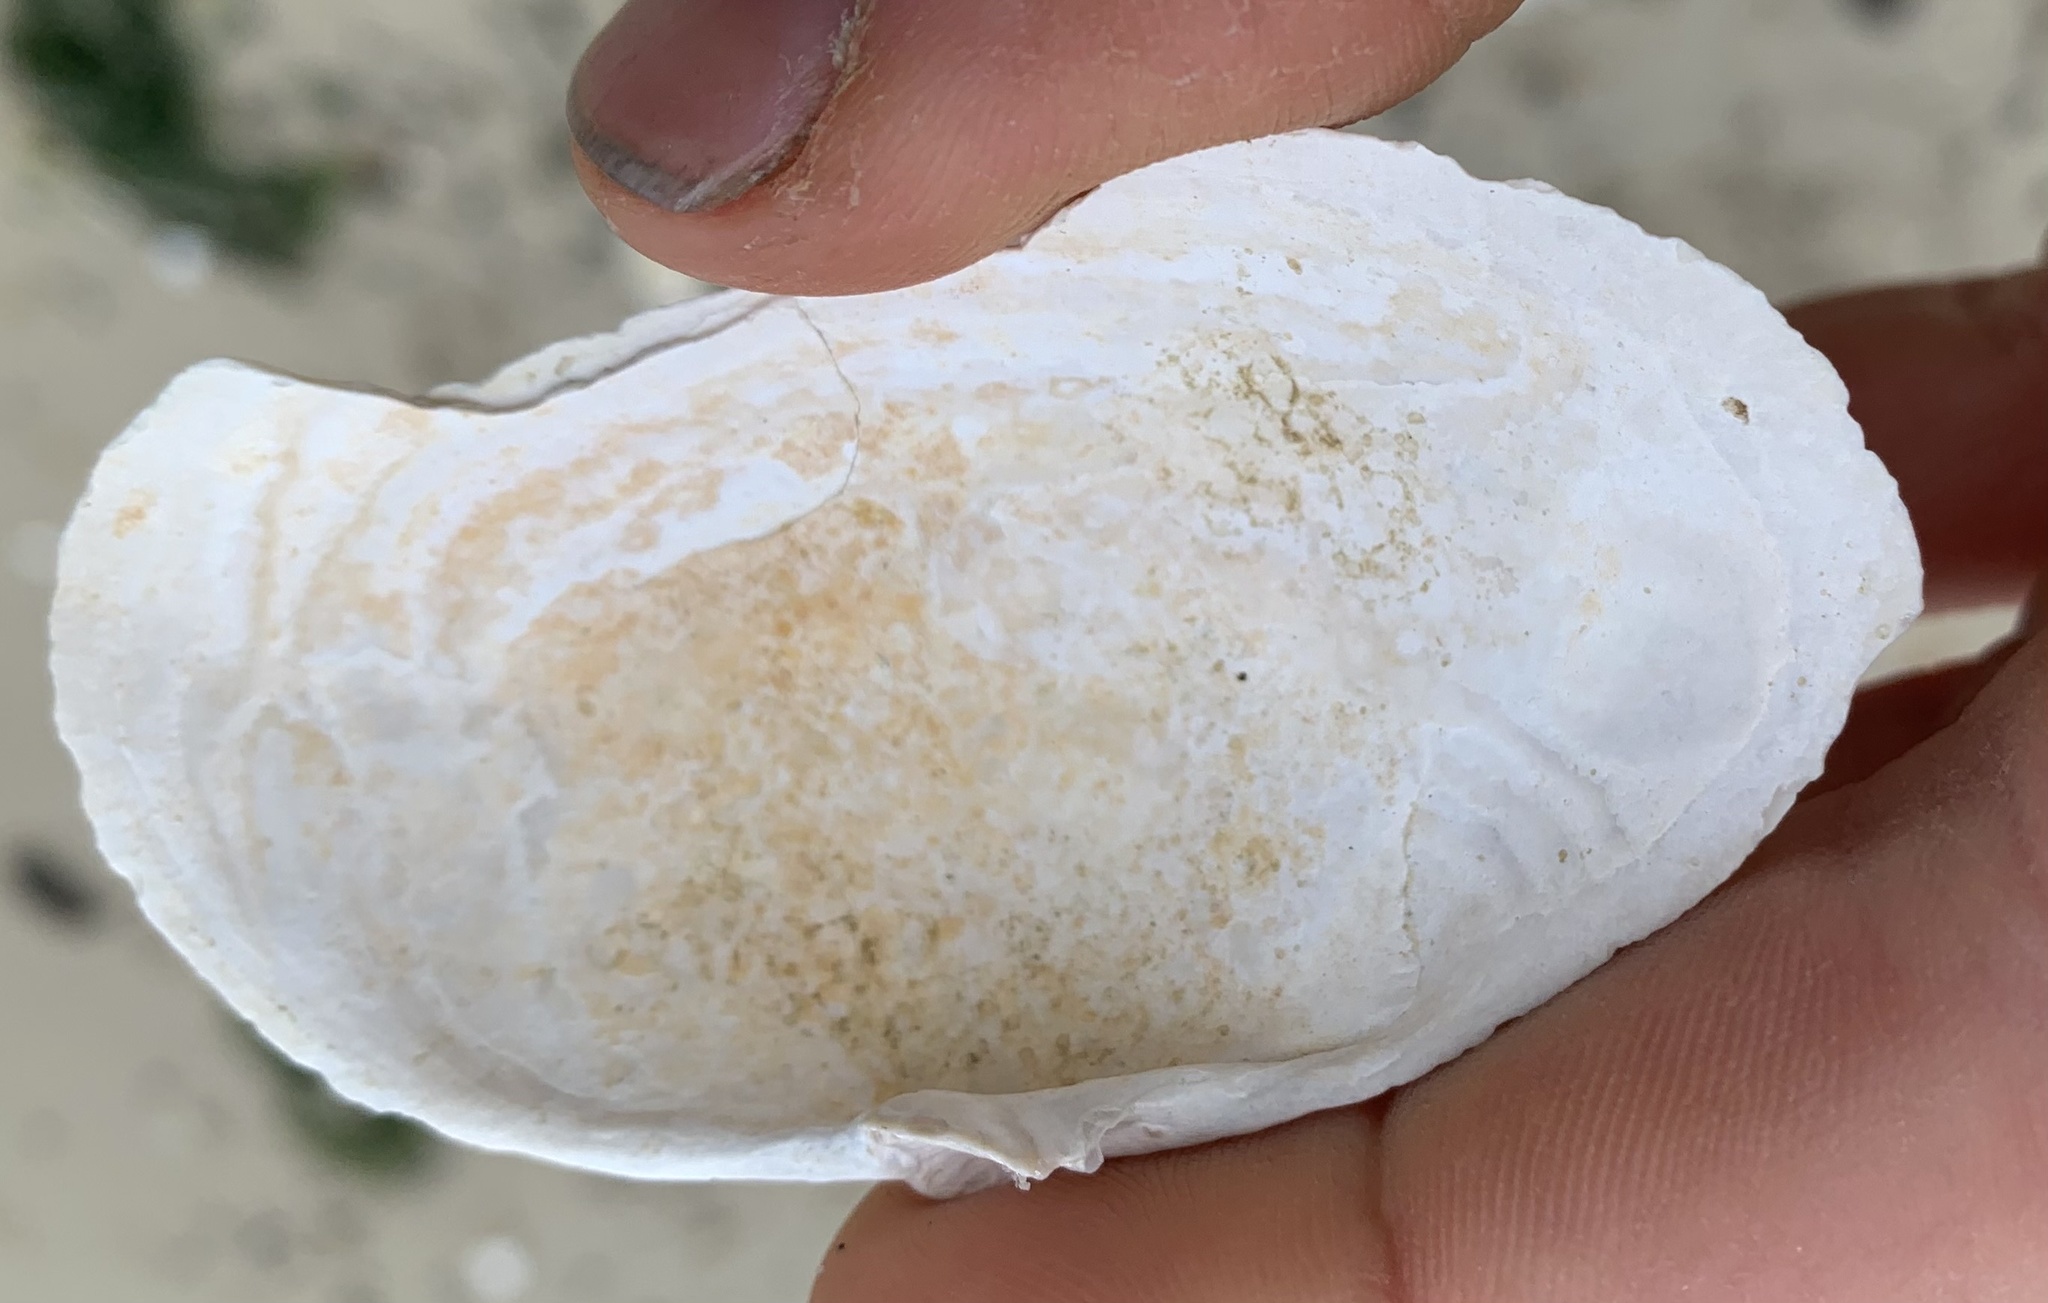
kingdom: Animalia
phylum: Mollusca
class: Bivalvia
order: Myida
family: Myidae
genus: Mya
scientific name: Mya arenaria
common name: Soft-shelled clam
